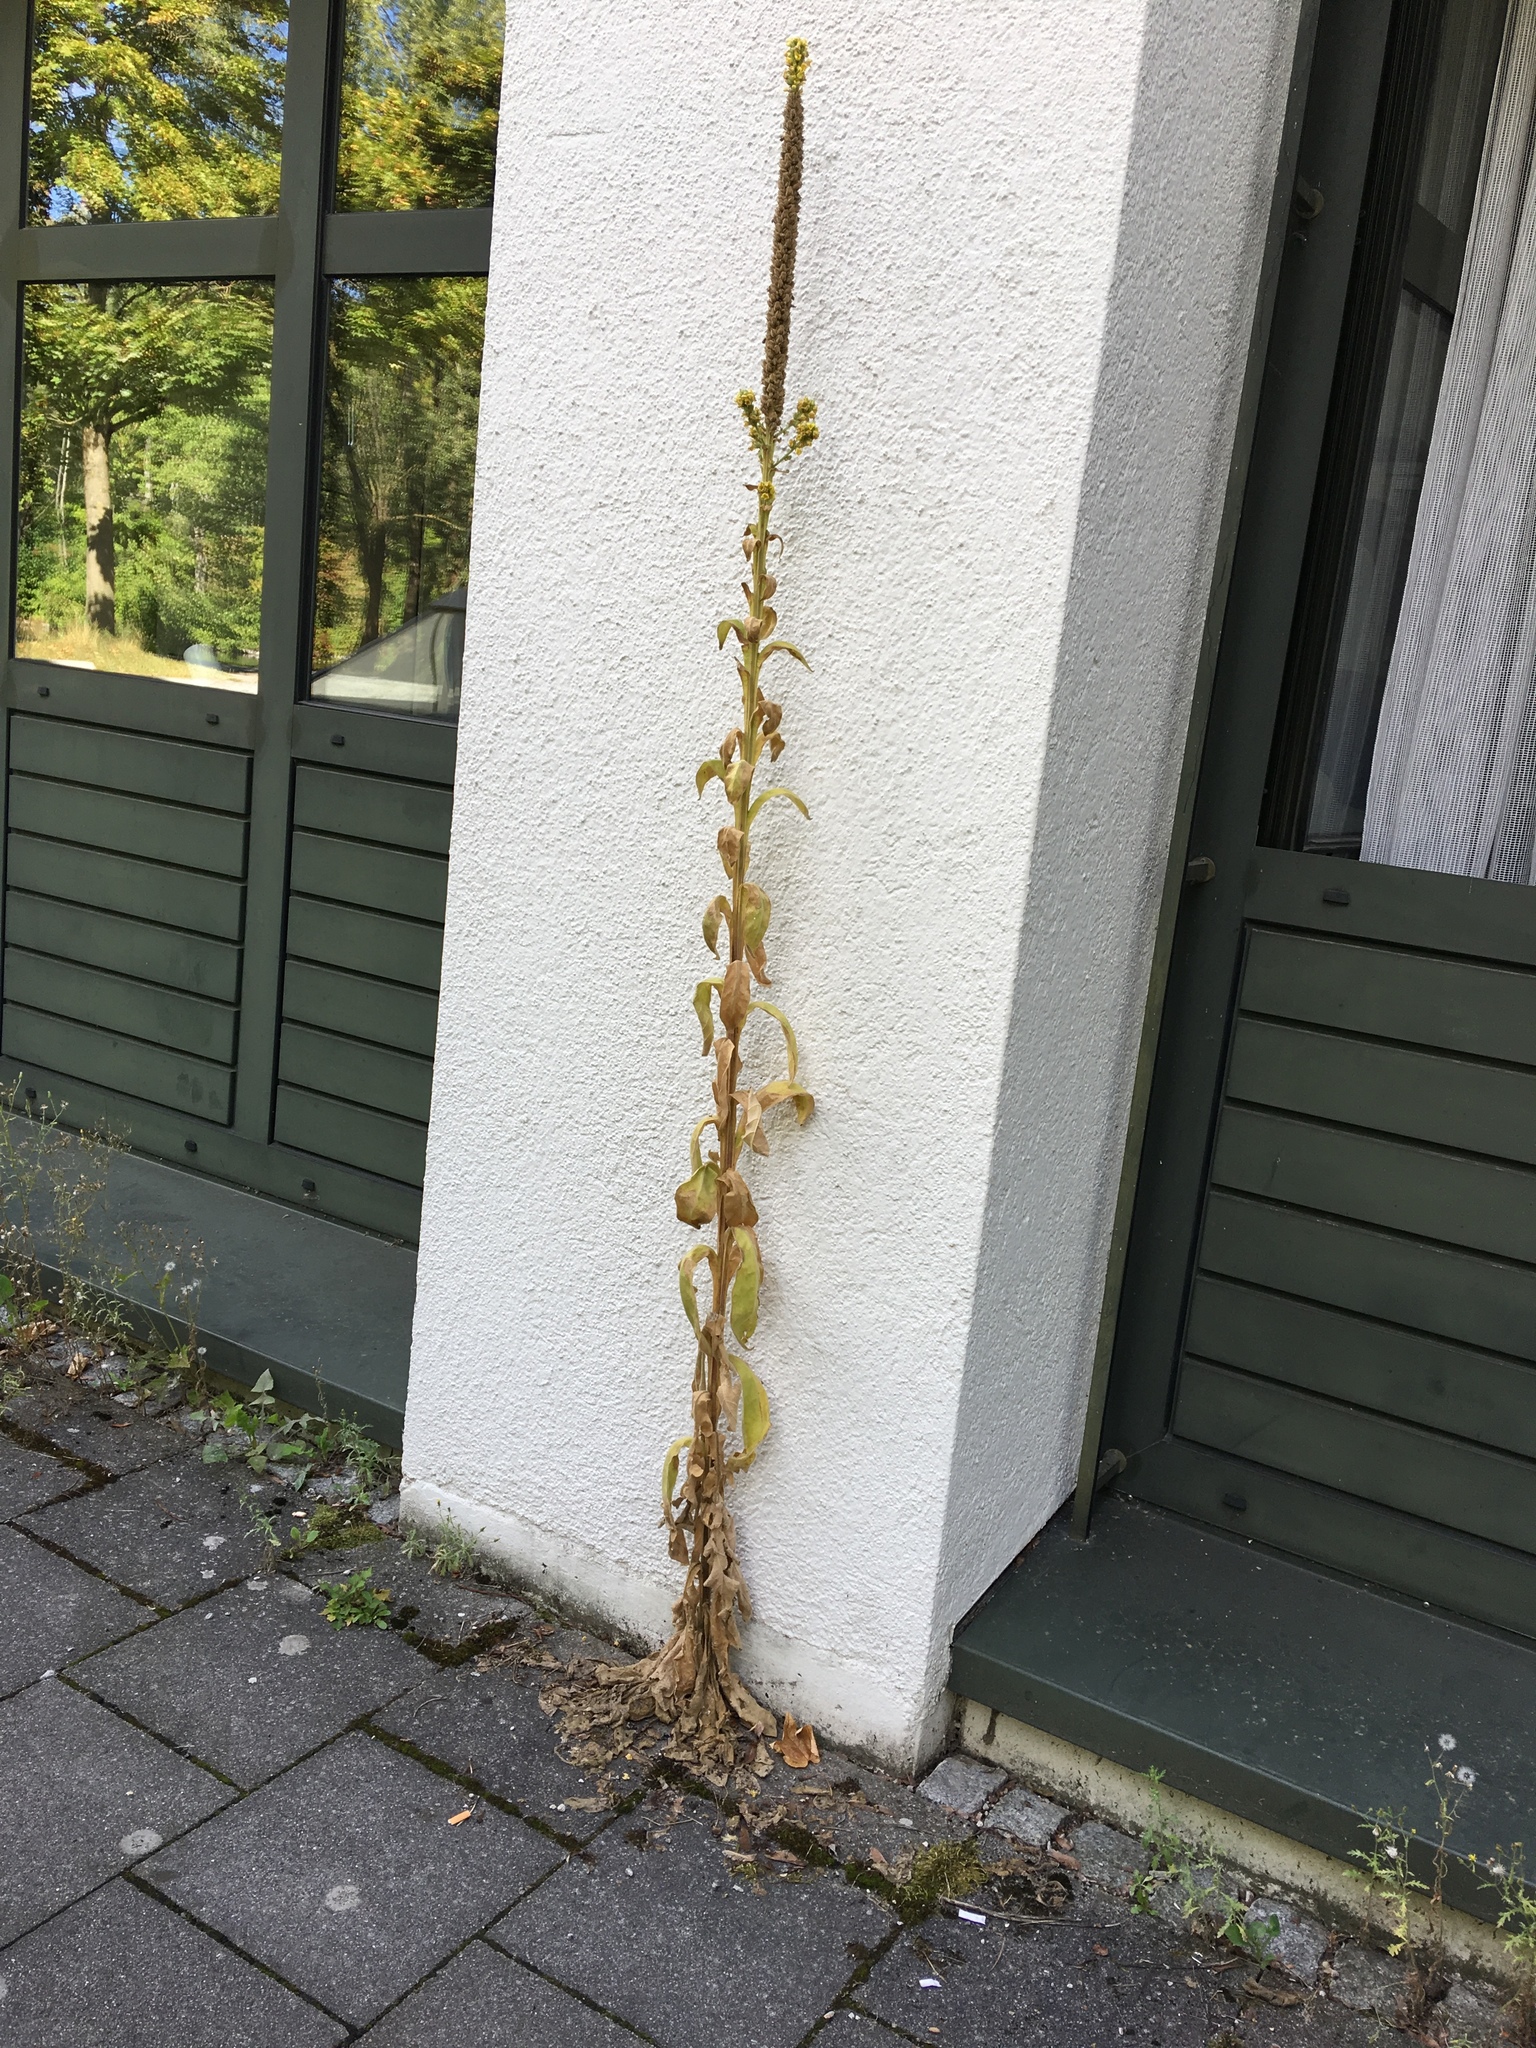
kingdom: Plantae
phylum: Tracheophyta
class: Magnoliopsida
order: Lamiales
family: Scrophulariaceae
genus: Verbascum
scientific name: Verbascum thapsus
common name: Common mullein
